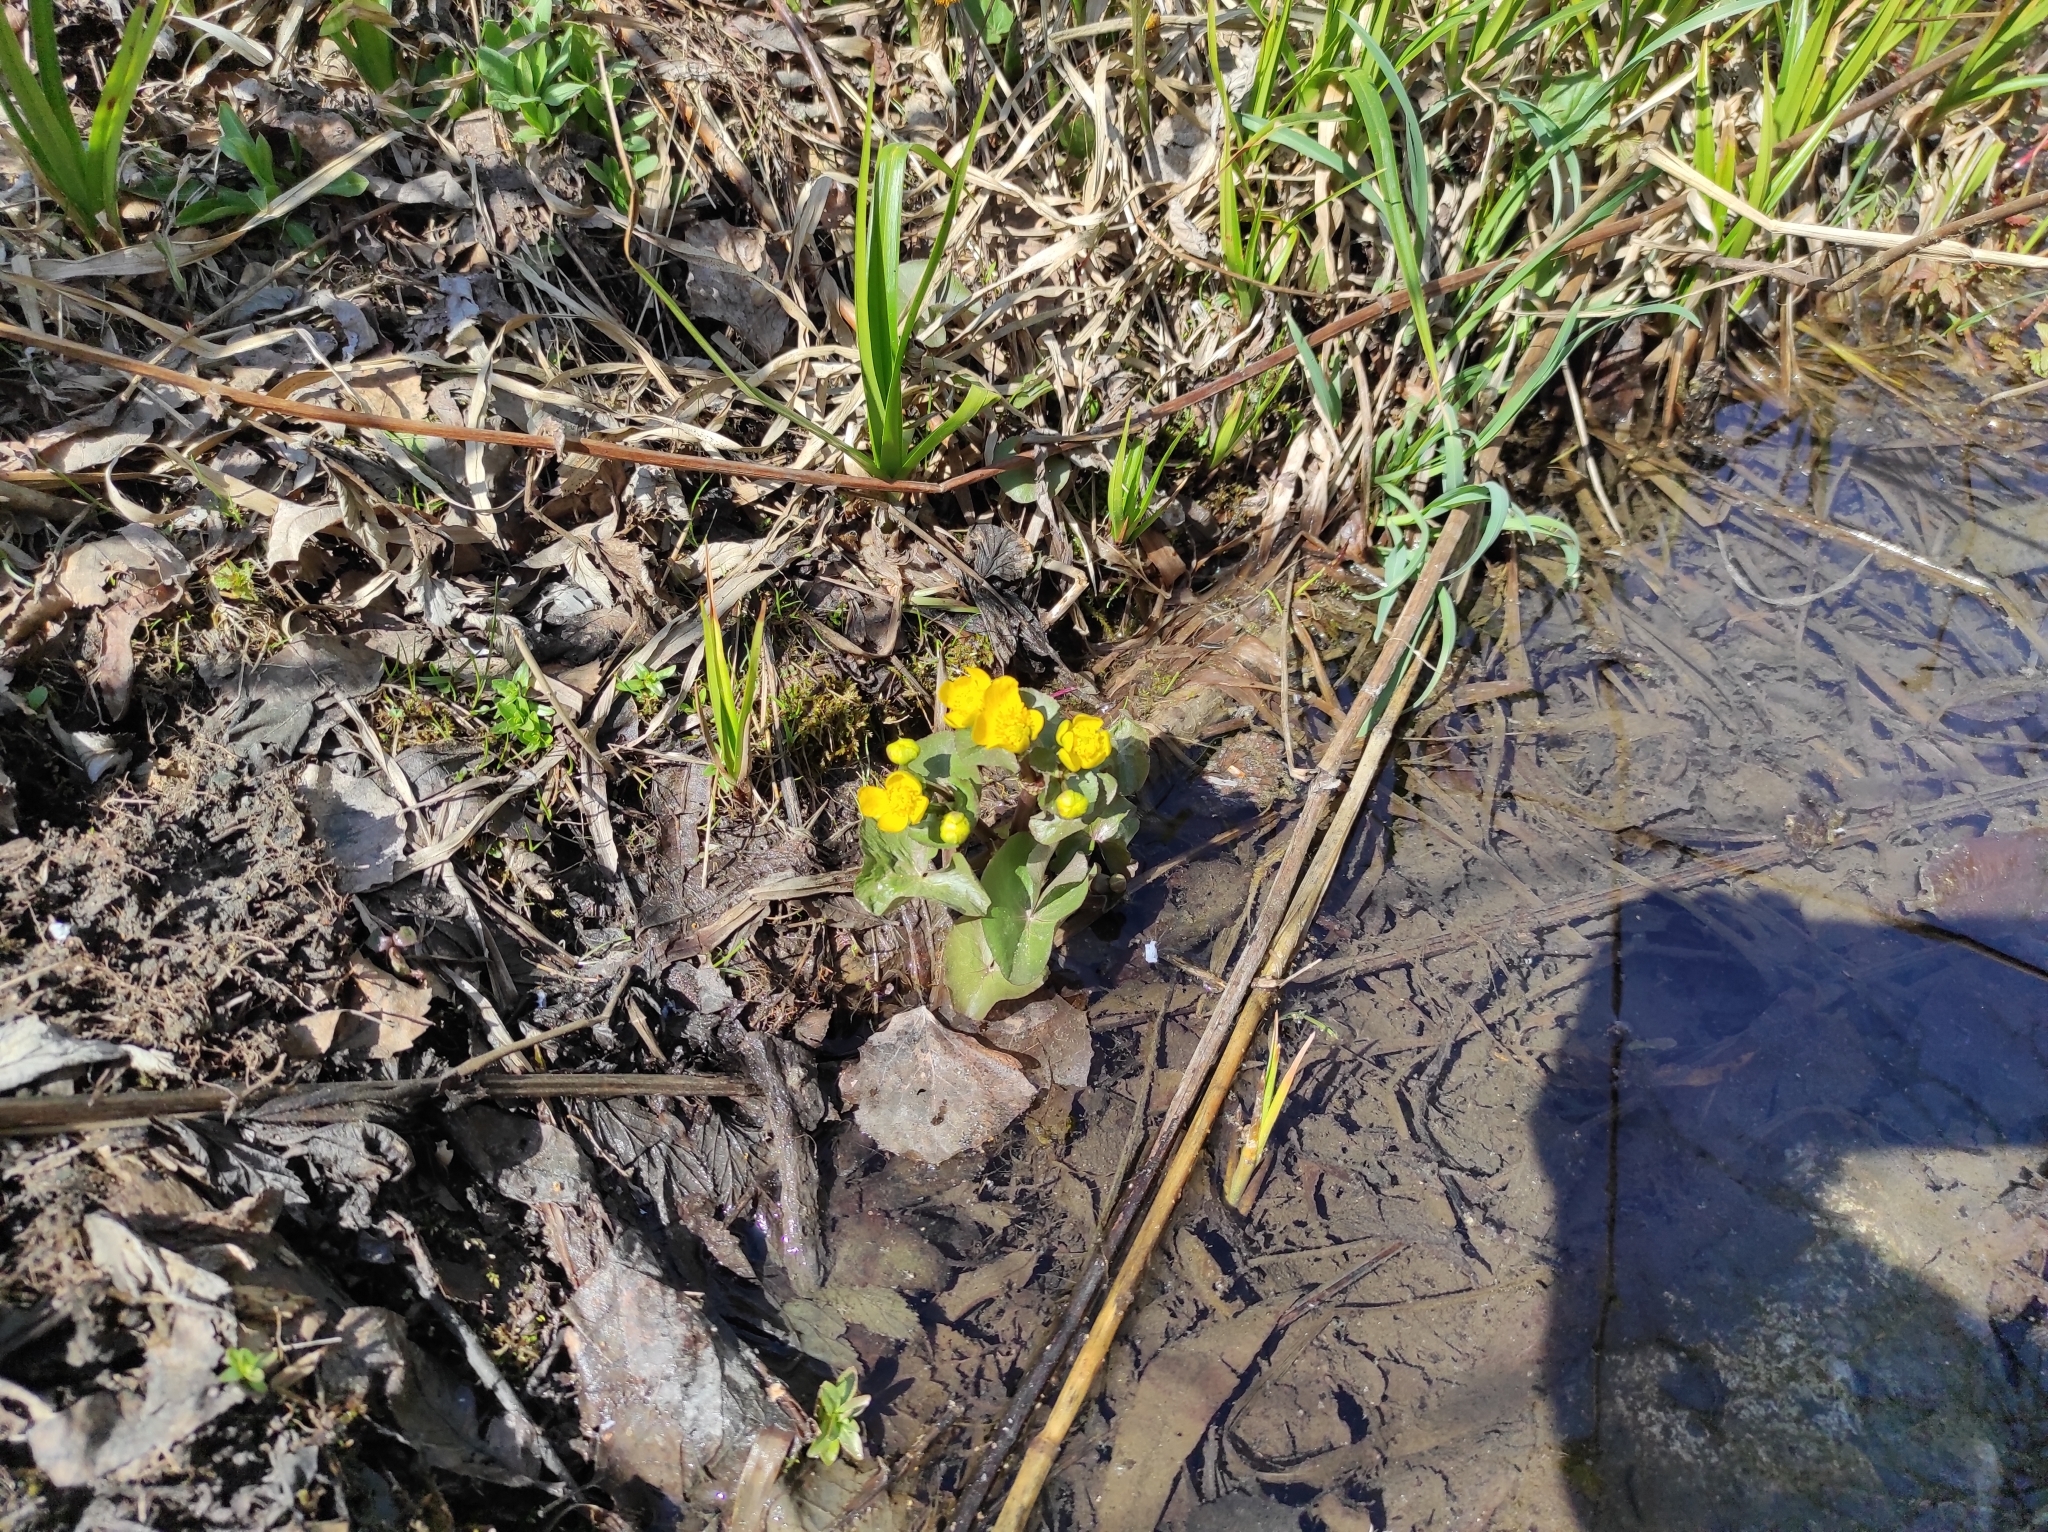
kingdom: Plantae
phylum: Tracheophyta
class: Magnoliopsida
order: Ranunculales
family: Ranunculaceae
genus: Caltha
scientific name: Caltha palustris
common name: Marsh marigold
